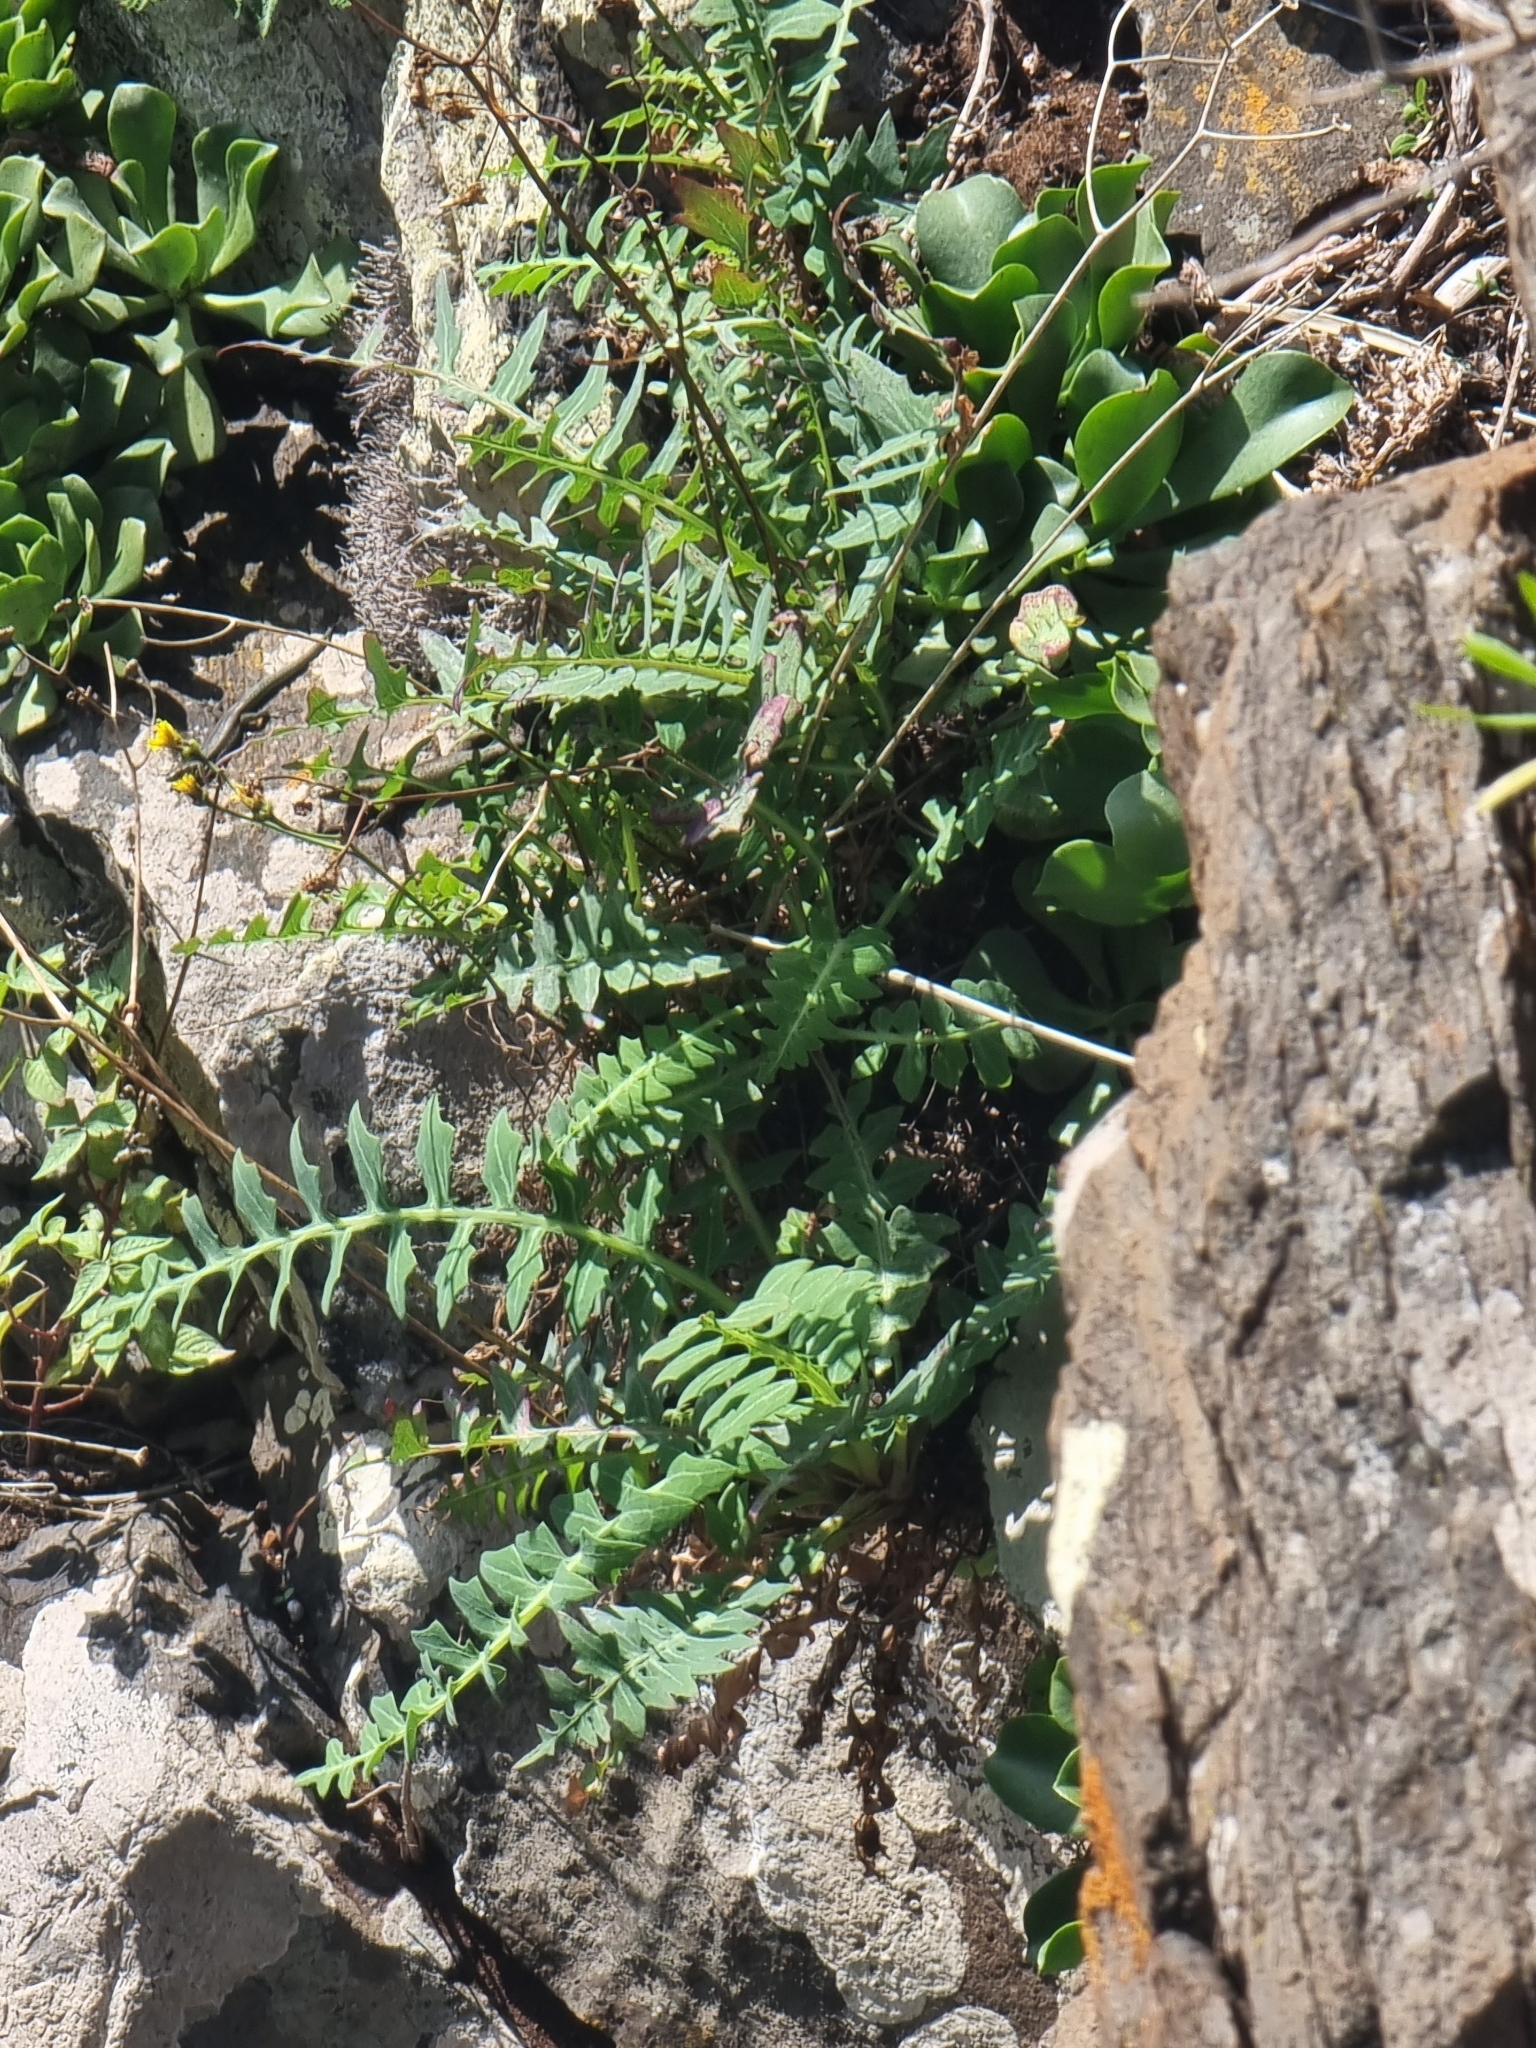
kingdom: Plantae
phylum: Tracheophyta
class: Magnoliopsida
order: Asterales
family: Asteraceae
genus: Sonchus
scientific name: Sonchus ustulatus
